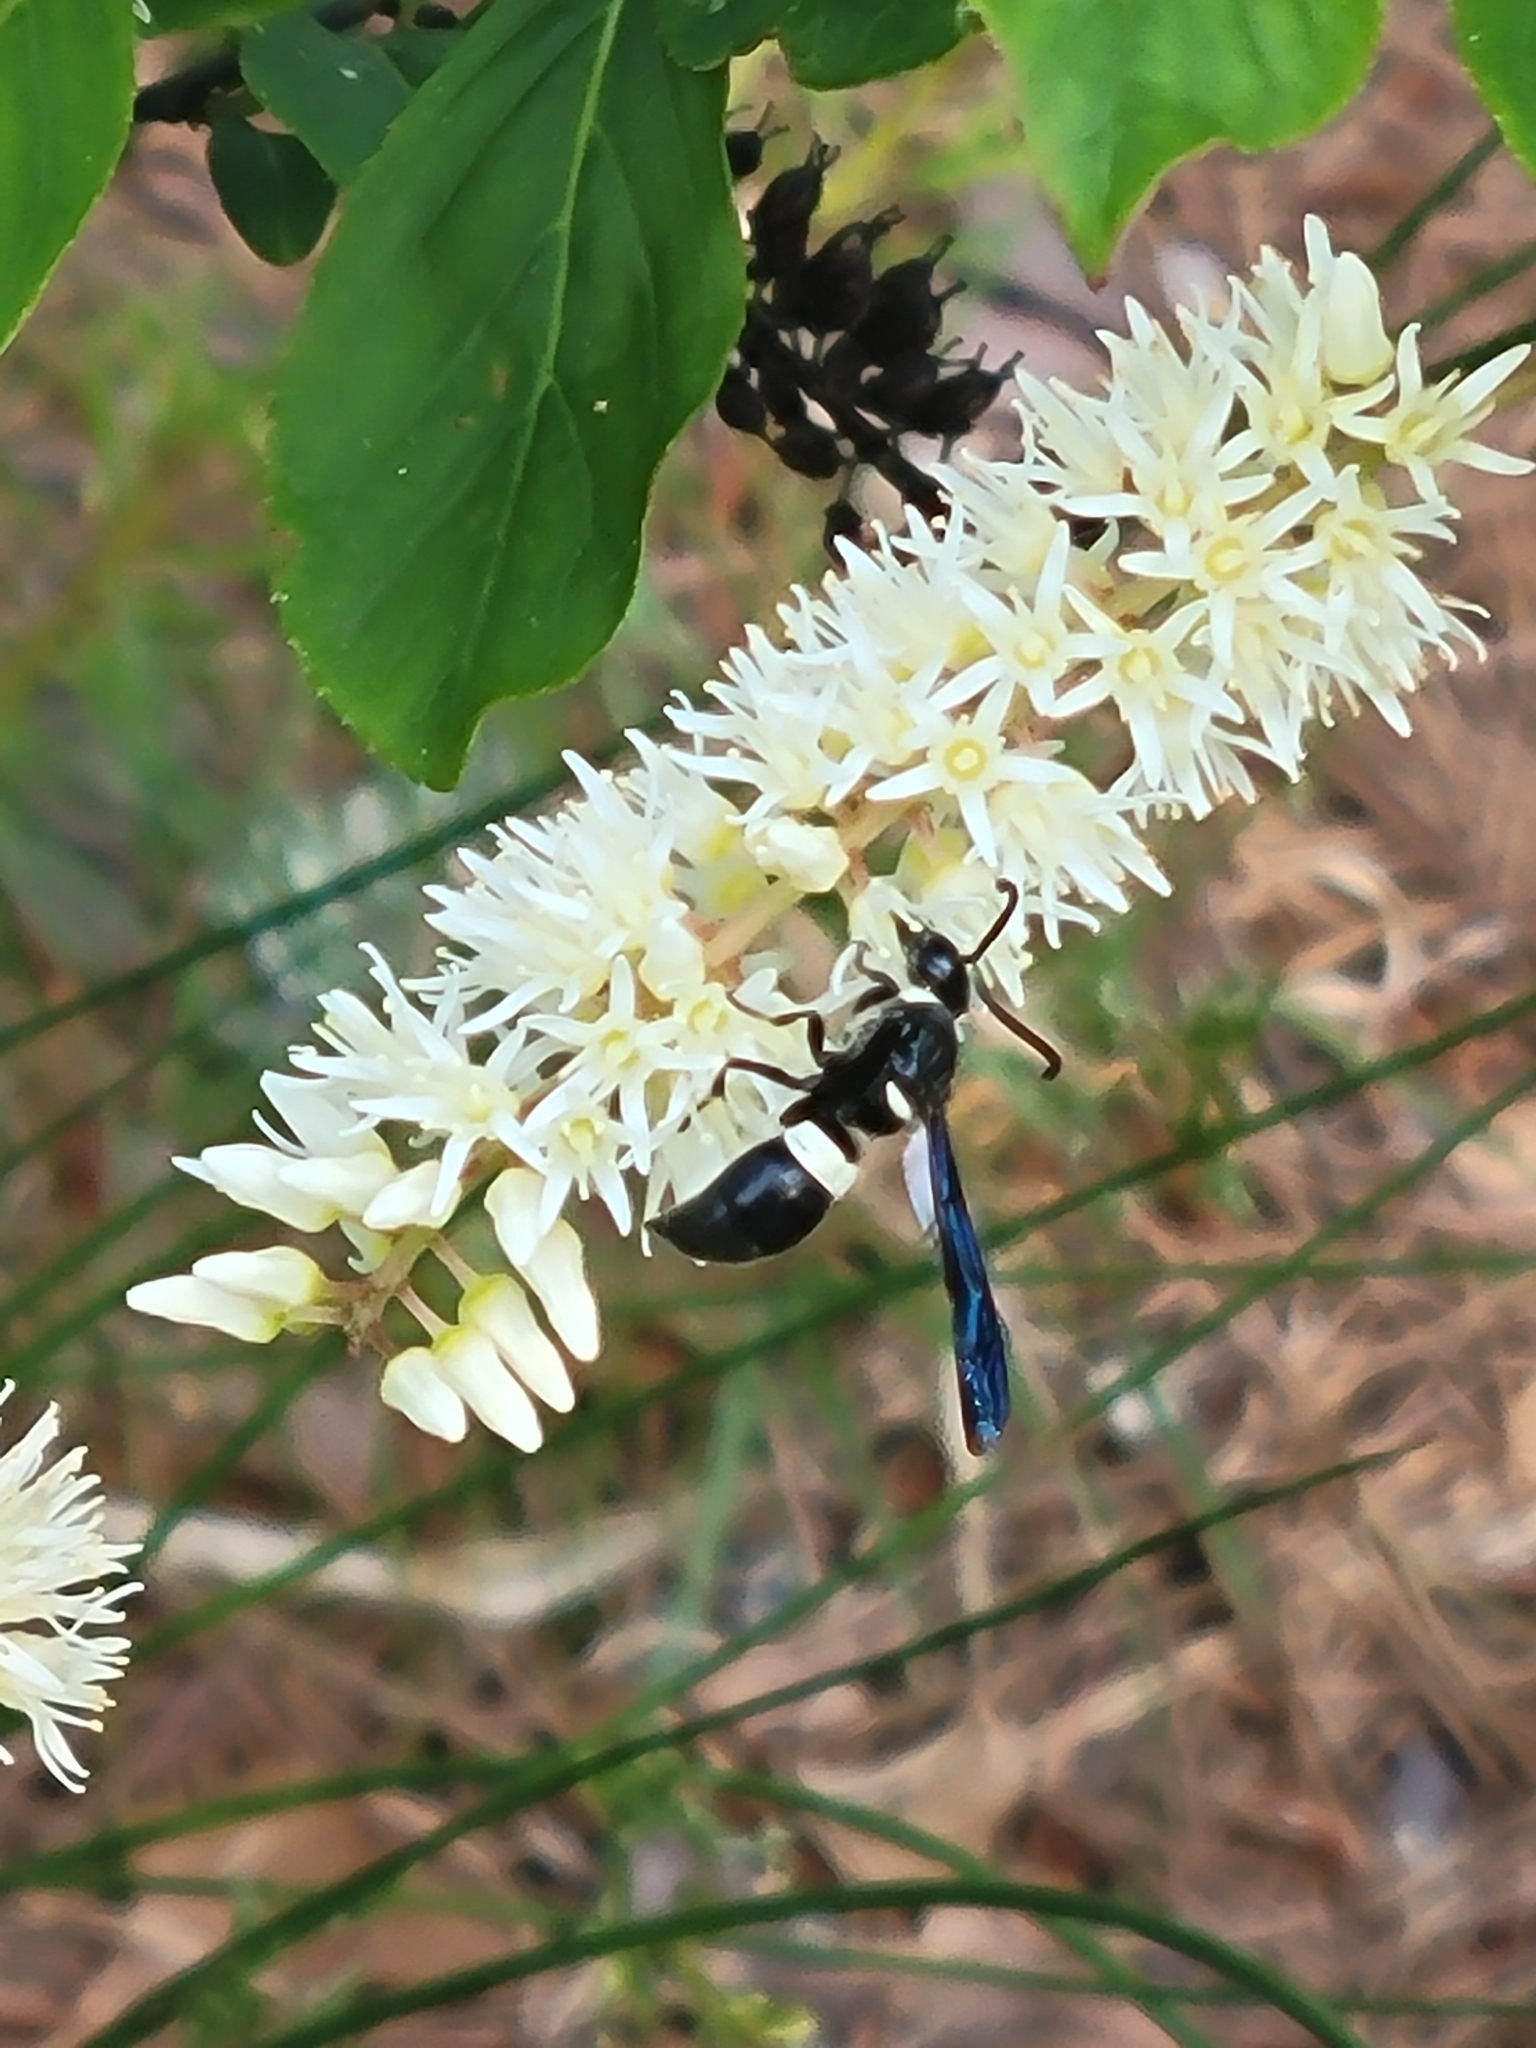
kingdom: Animalia
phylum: Arthropoda
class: Insecta
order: Hymenoptera
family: Eumenidae
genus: Monobia
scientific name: Monobia quadridens
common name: Four-toothed mason wasp
